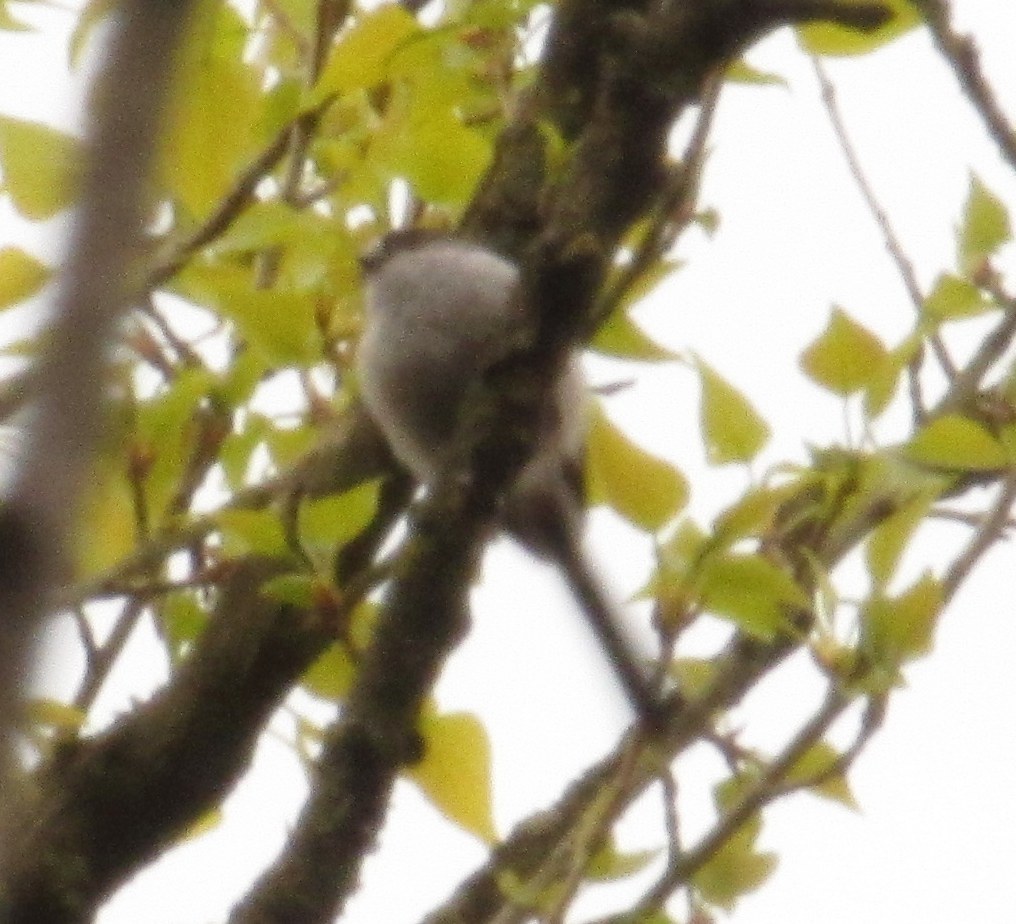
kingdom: Animalia
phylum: Chordata
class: Aves
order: Passeriformes
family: Aegithalidae
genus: Aegithalos
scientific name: Aegithalos caudatus
